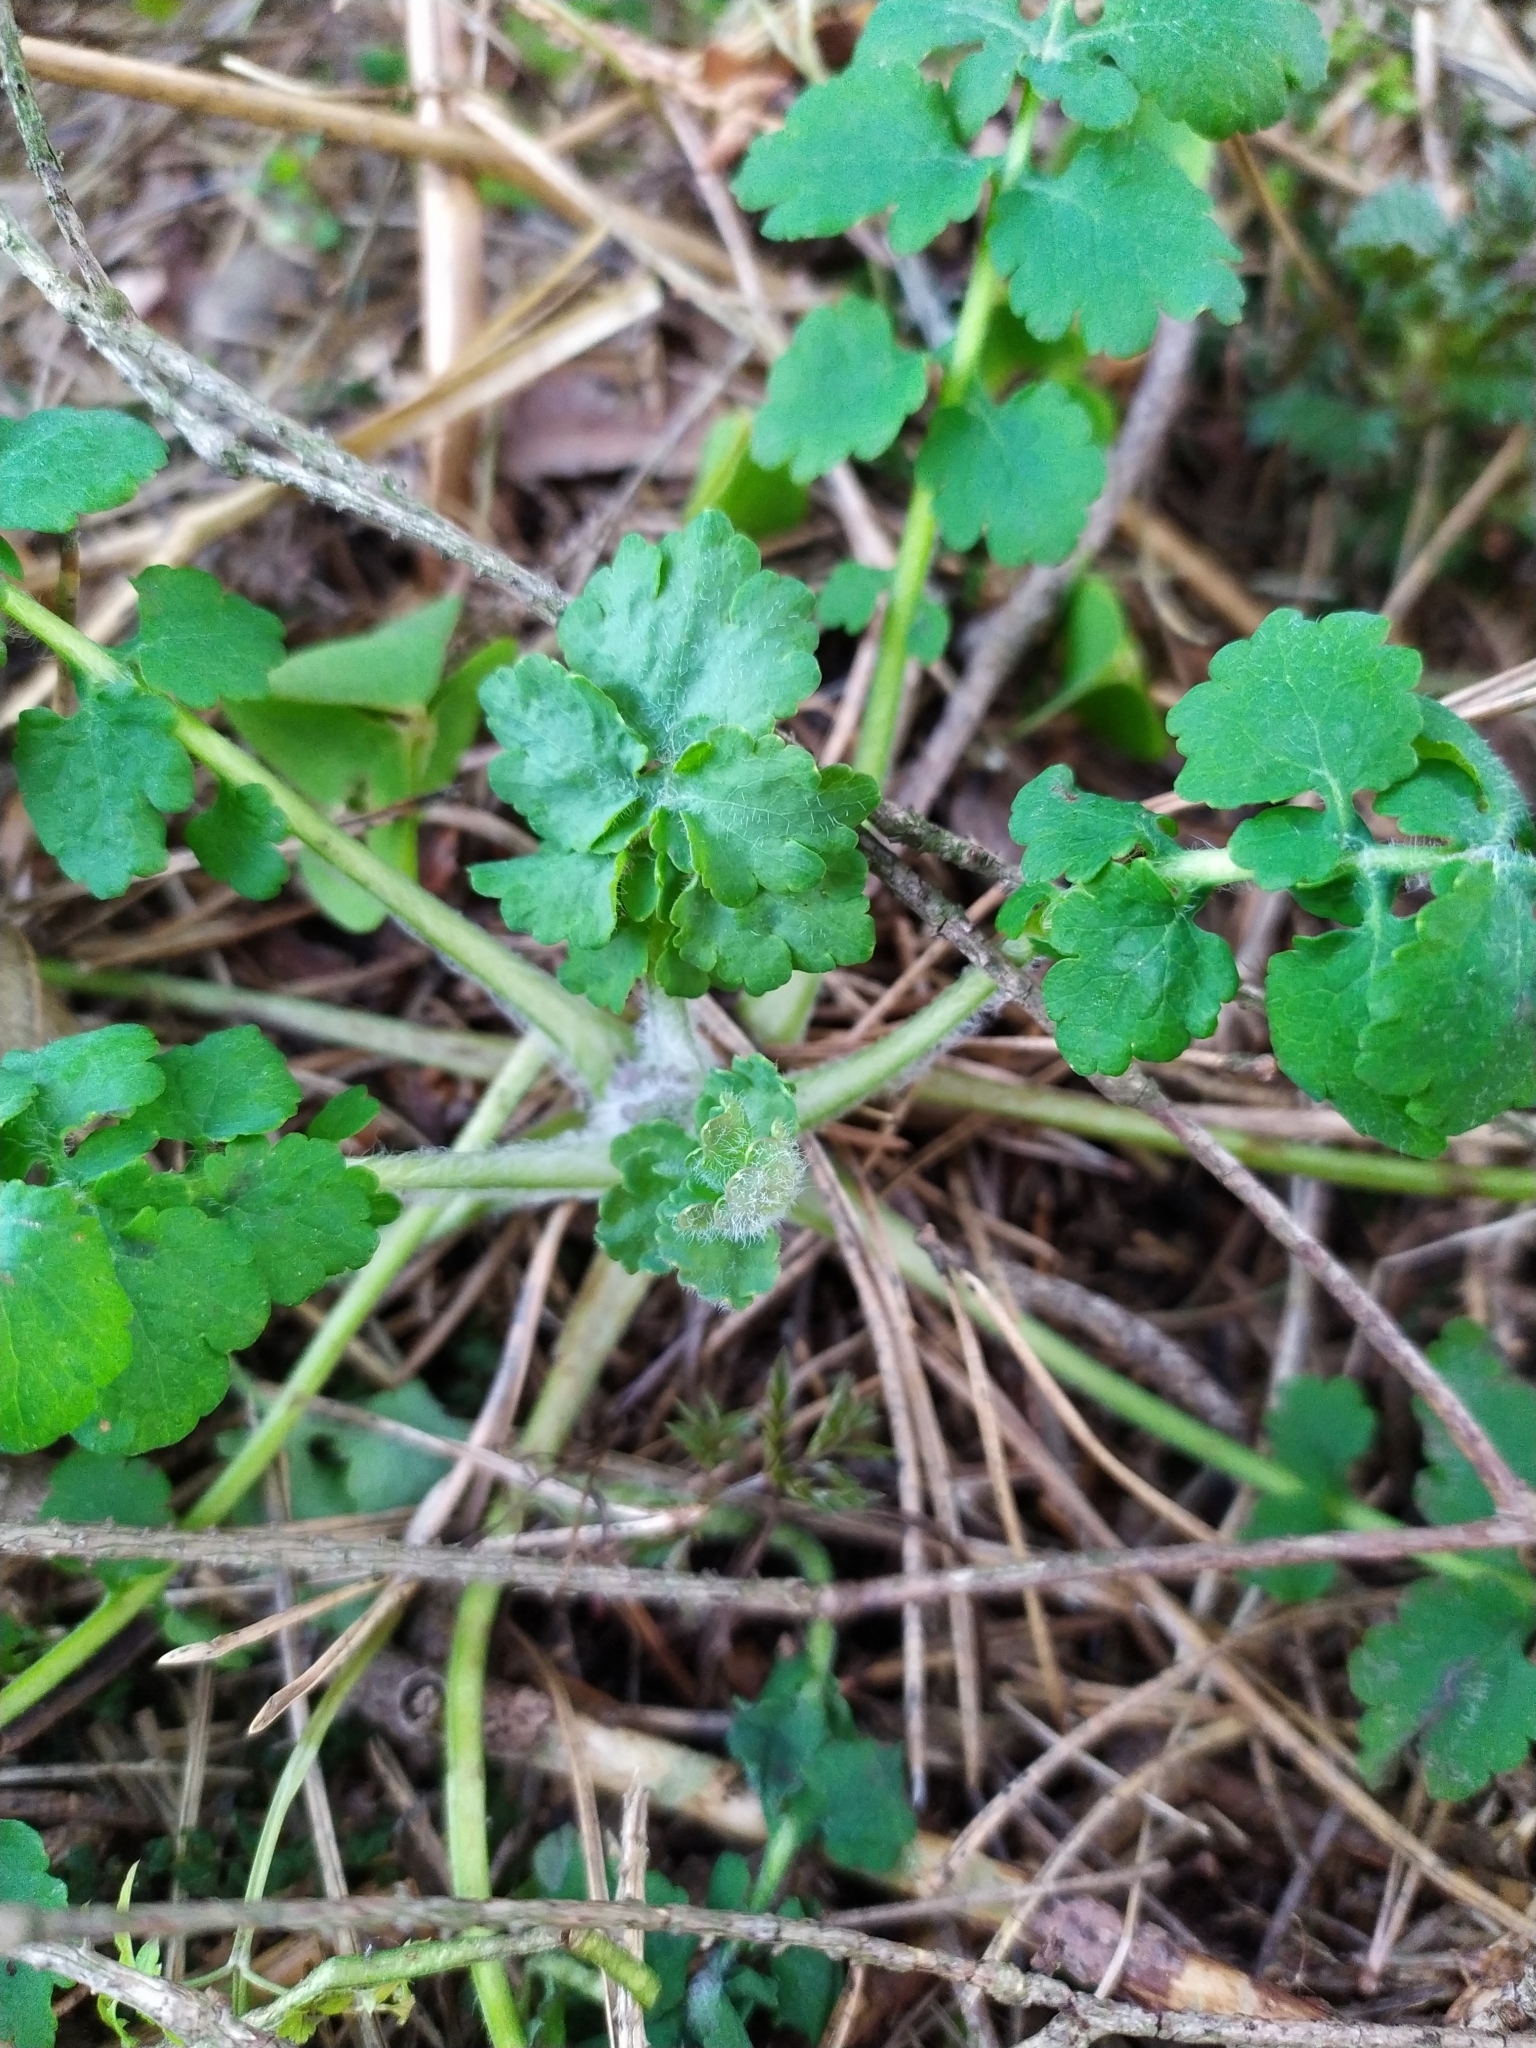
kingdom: Plantae
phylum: Tracheophyta
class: Magnoliopsida
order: Ranunculales
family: Papaveraceae
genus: Chelidonium
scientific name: Chelidonium majus
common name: Greater celandine
